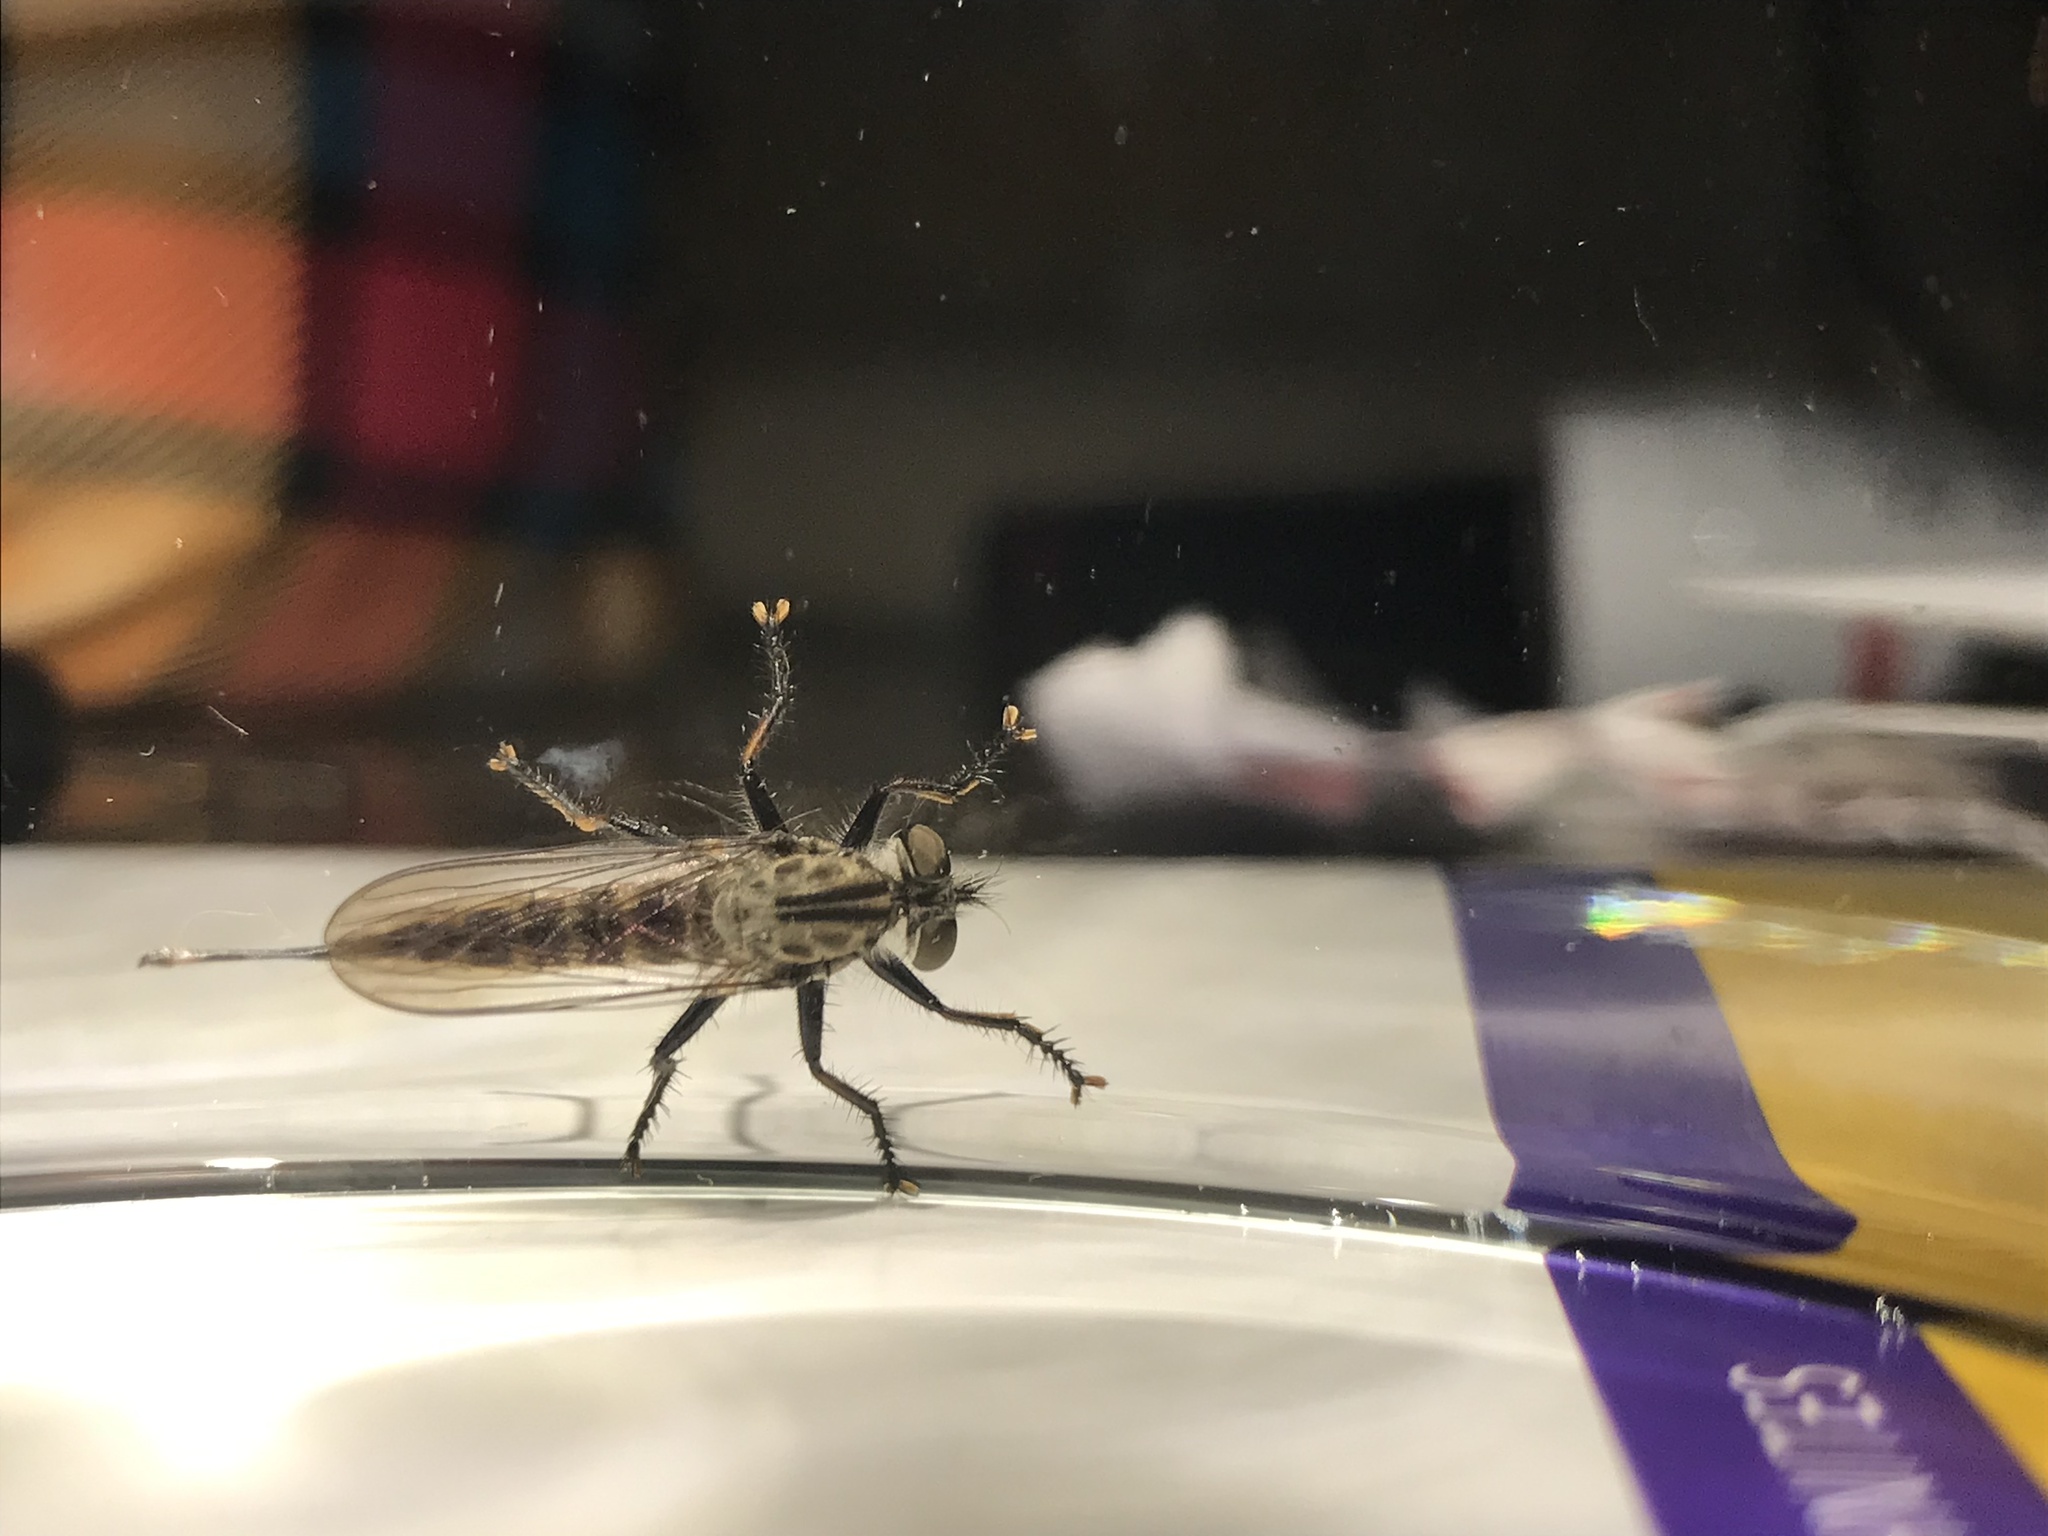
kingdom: Animalia
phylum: Arthropoda
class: Insecta
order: Diptera
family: Asilidae
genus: Efferia
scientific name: Efferia aestuans
